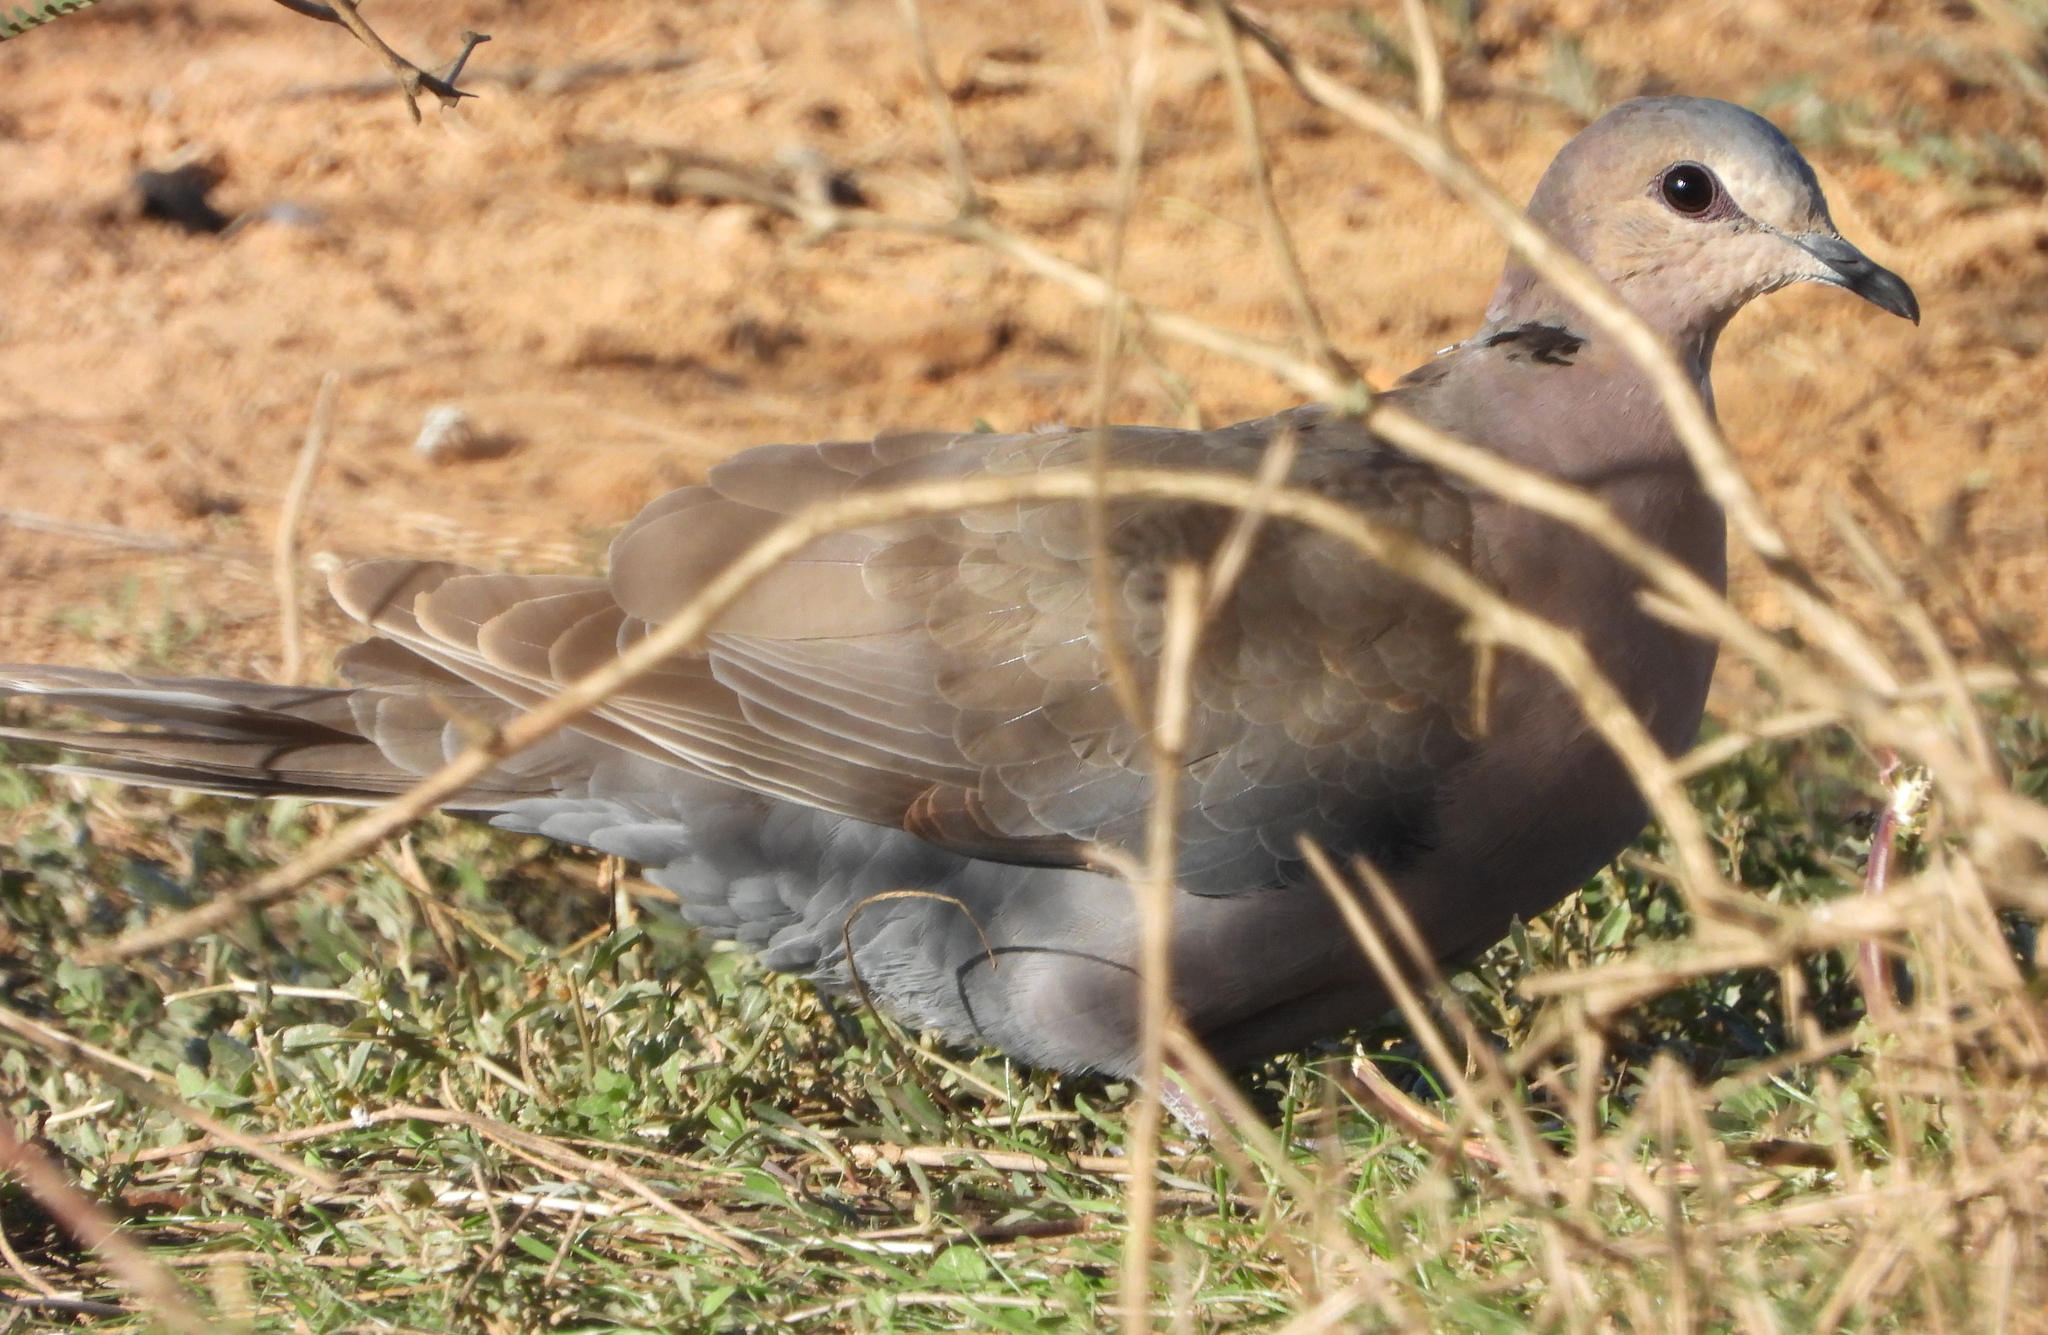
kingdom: Animalia
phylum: Chordata
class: Aves
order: Columbiformes
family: Columbidae
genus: Streptopelia
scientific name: Streptopelia semitorquata
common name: Red-eyed dove
